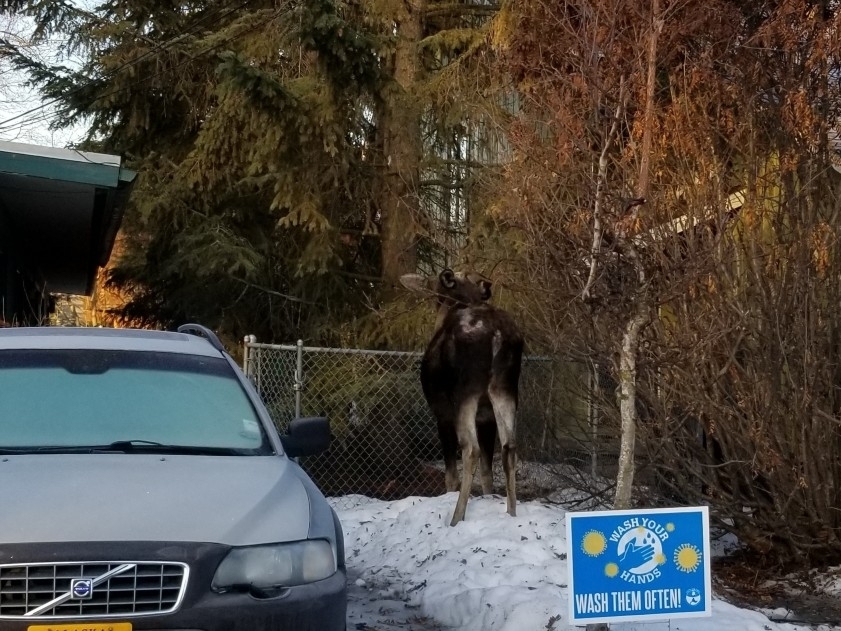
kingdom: Animalia
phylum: Chordata
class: Mammalia
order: Artiodactyla
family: Cervidae
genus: Alces
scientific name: Alces alces
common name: Moose
